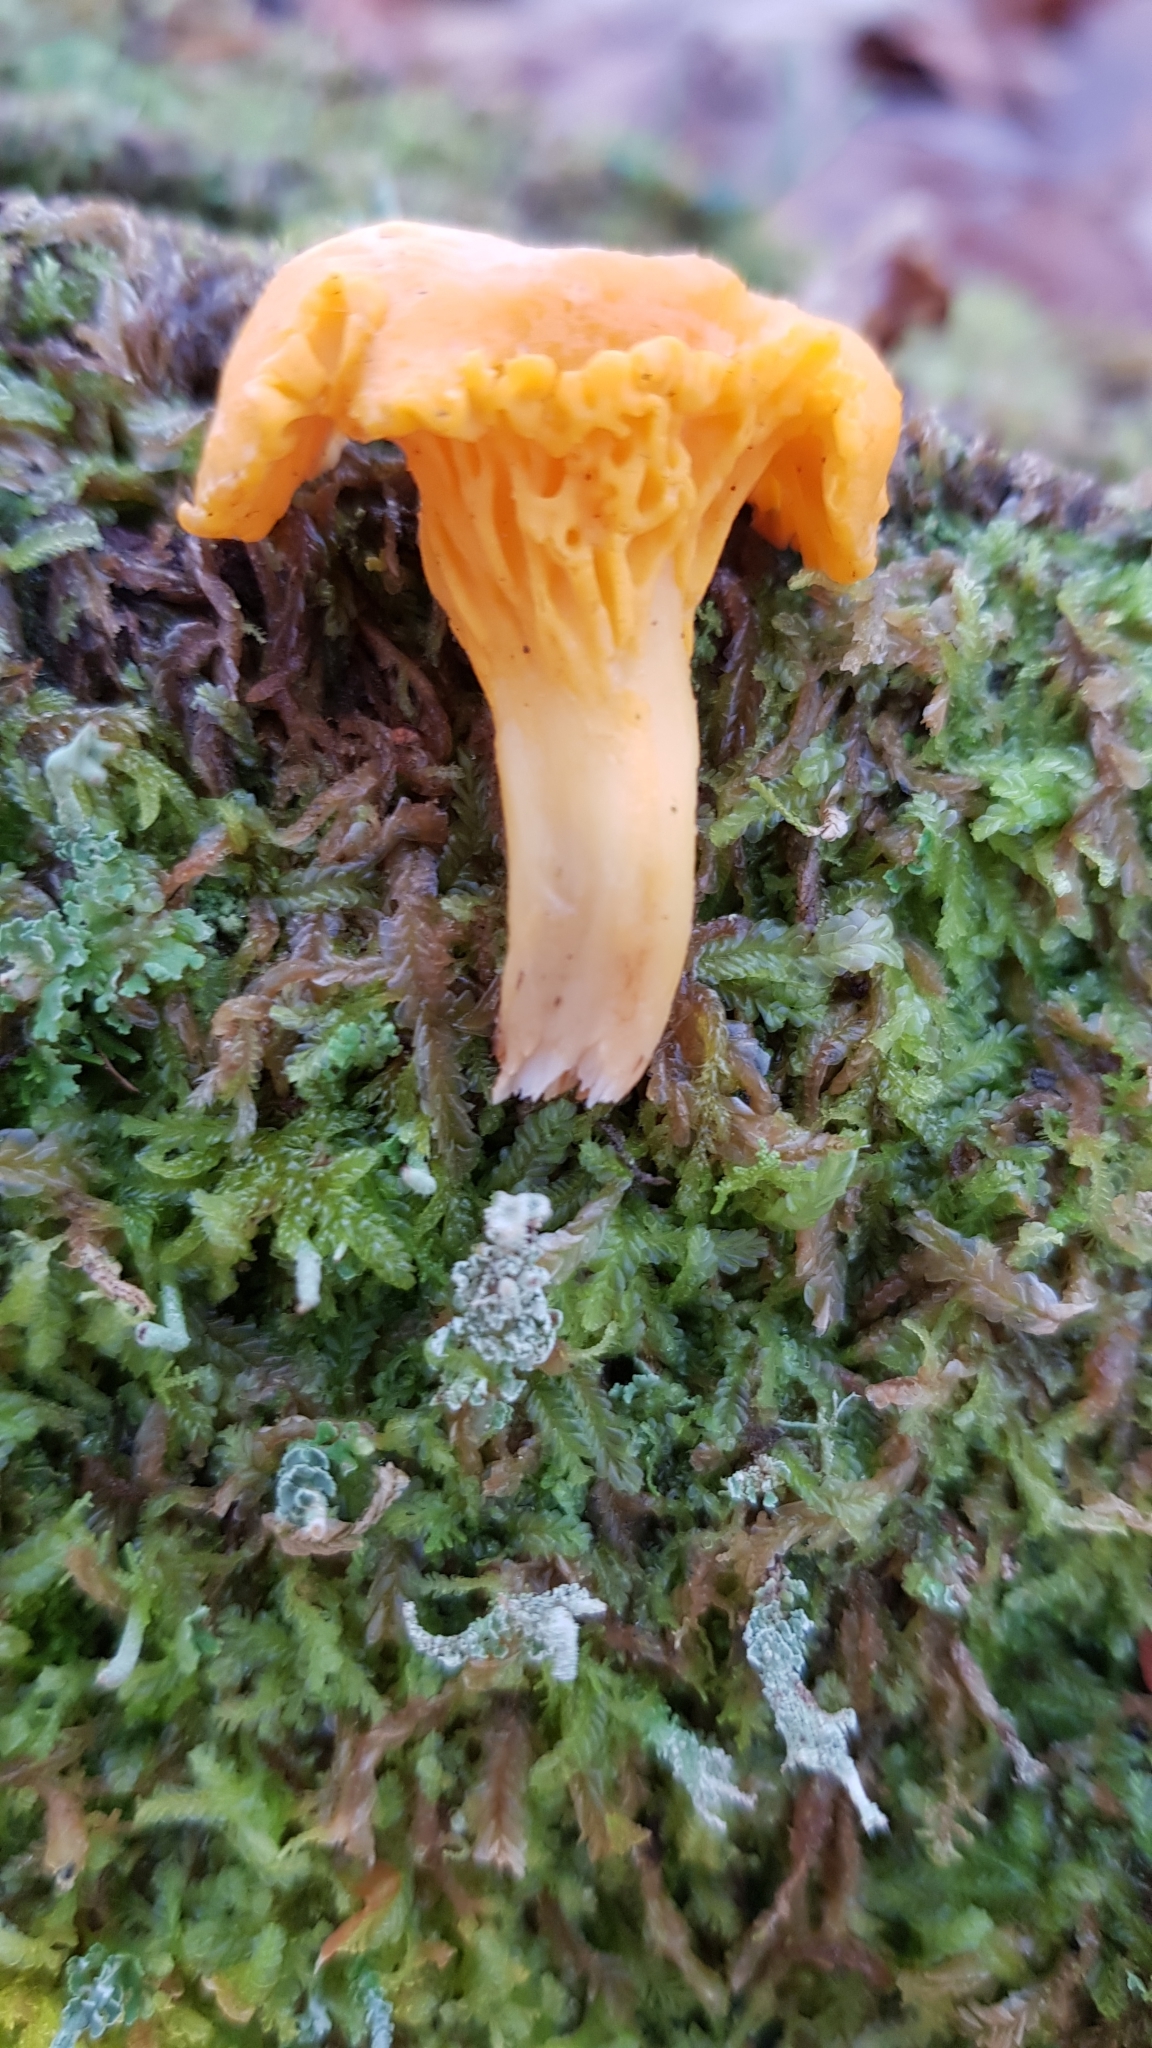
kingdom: Fungi
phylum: Basidiomycota
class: Agaricomycetes
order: Cantharellales
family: Hydnaceae
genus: Cantharellus
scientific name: Cantharellus cibarius
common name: Chanterelle
